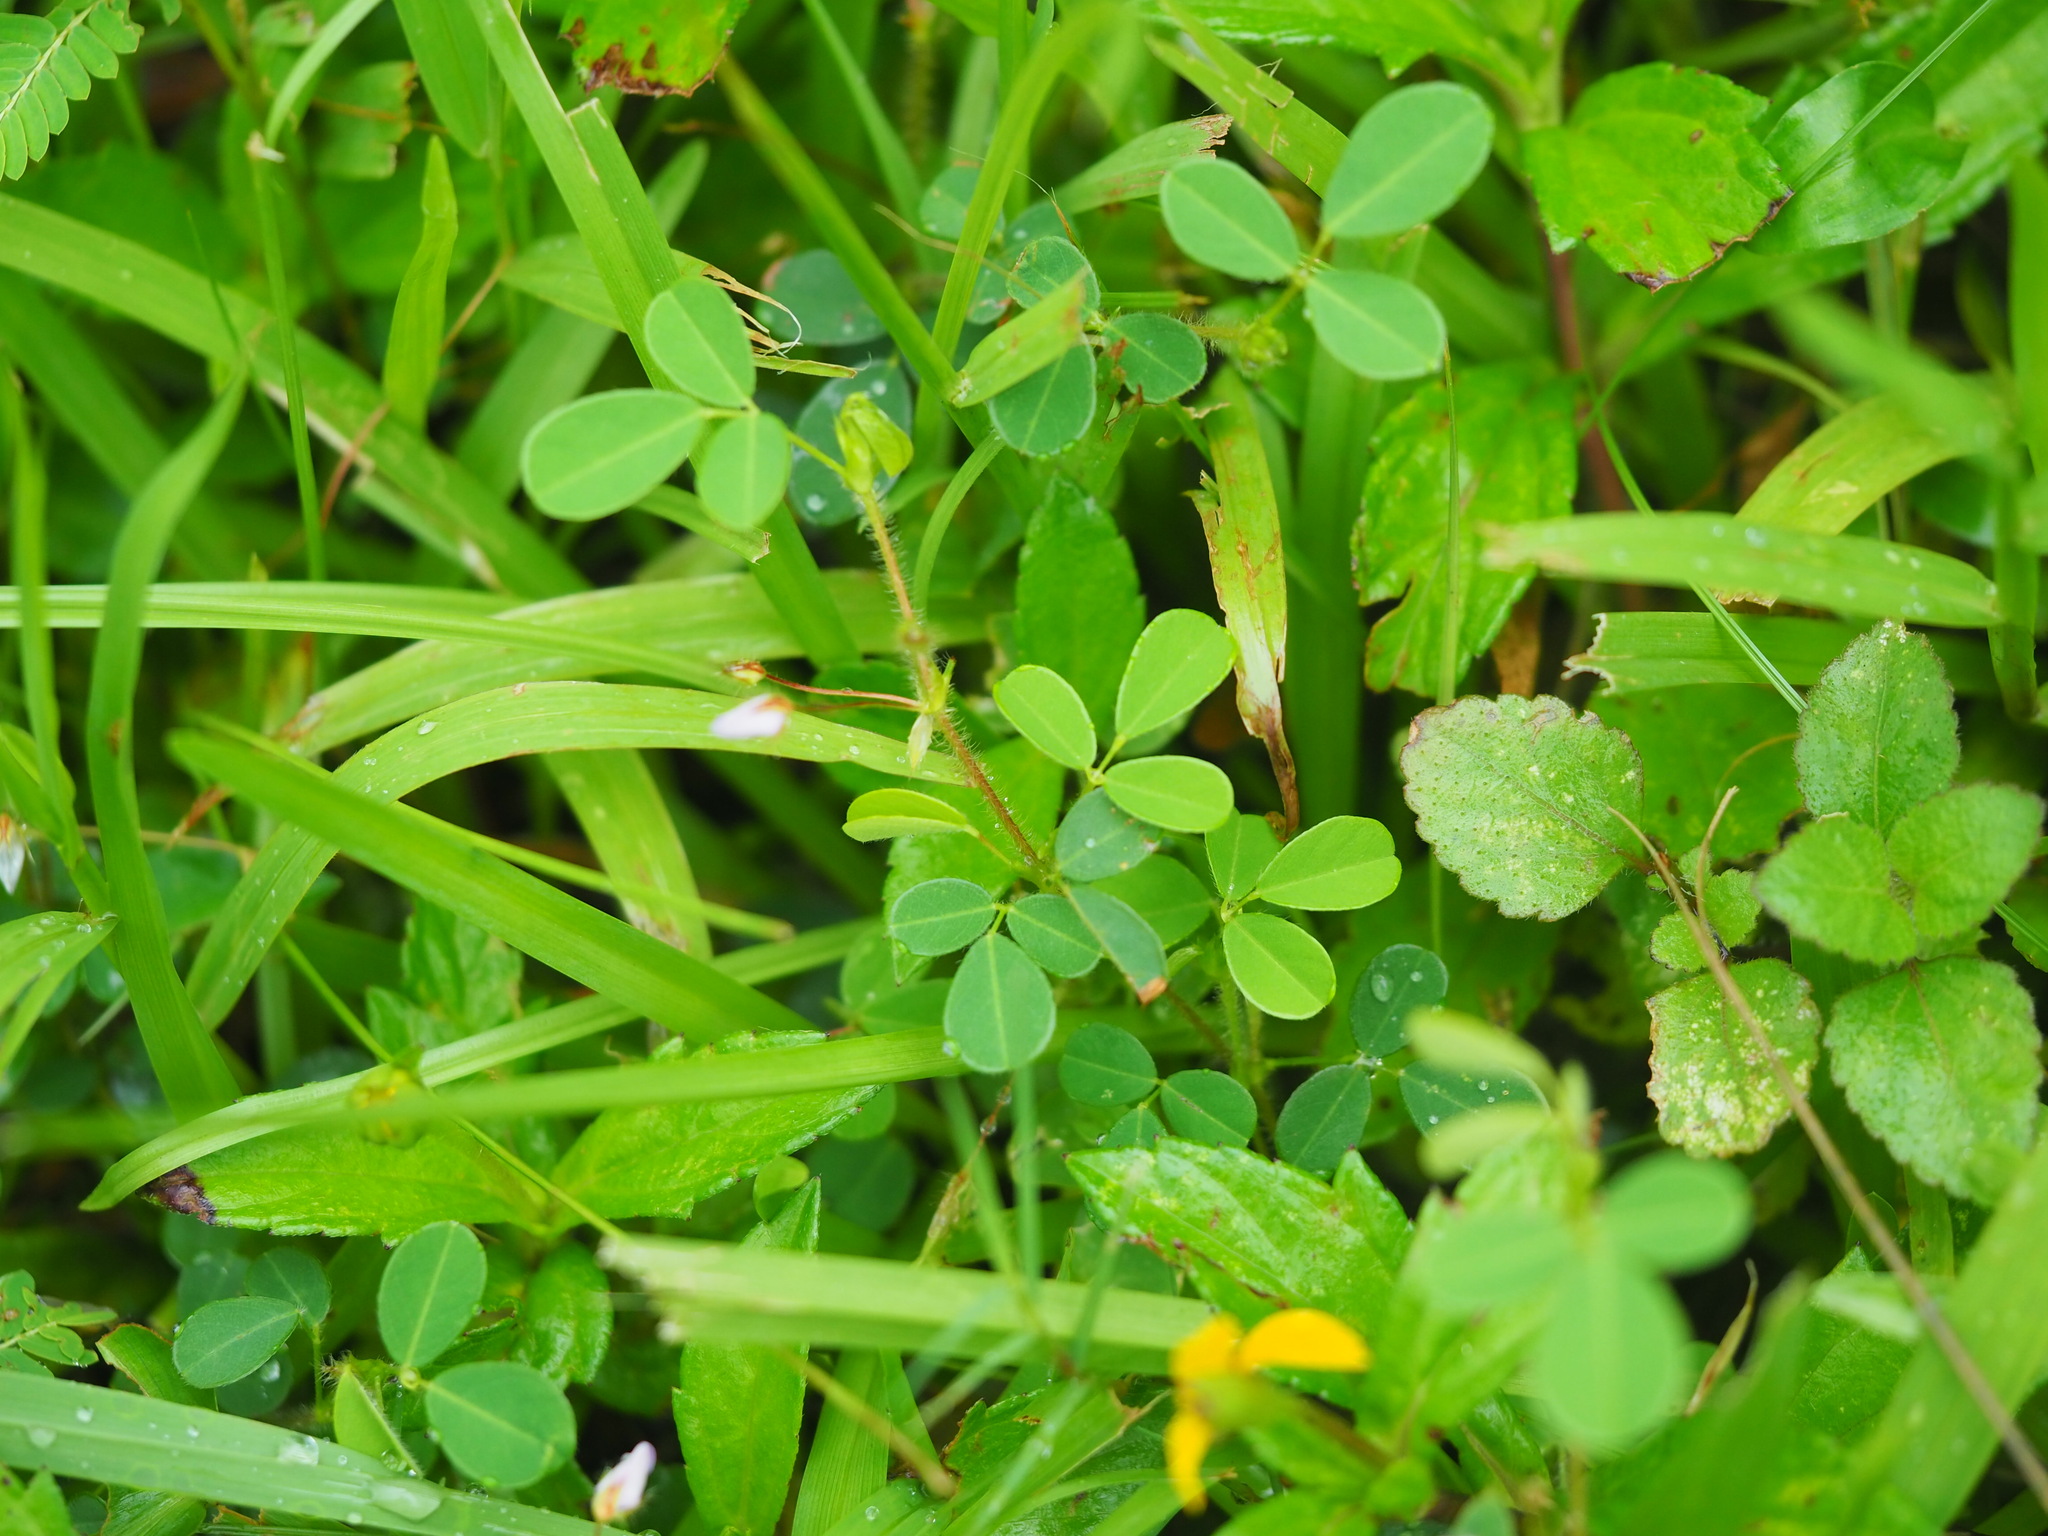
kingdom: Plantae
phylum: Tracheophyta
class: Magnoliopsida
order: Fabales
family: Fabaceae
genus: Grona
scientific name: Grona heterophylla
